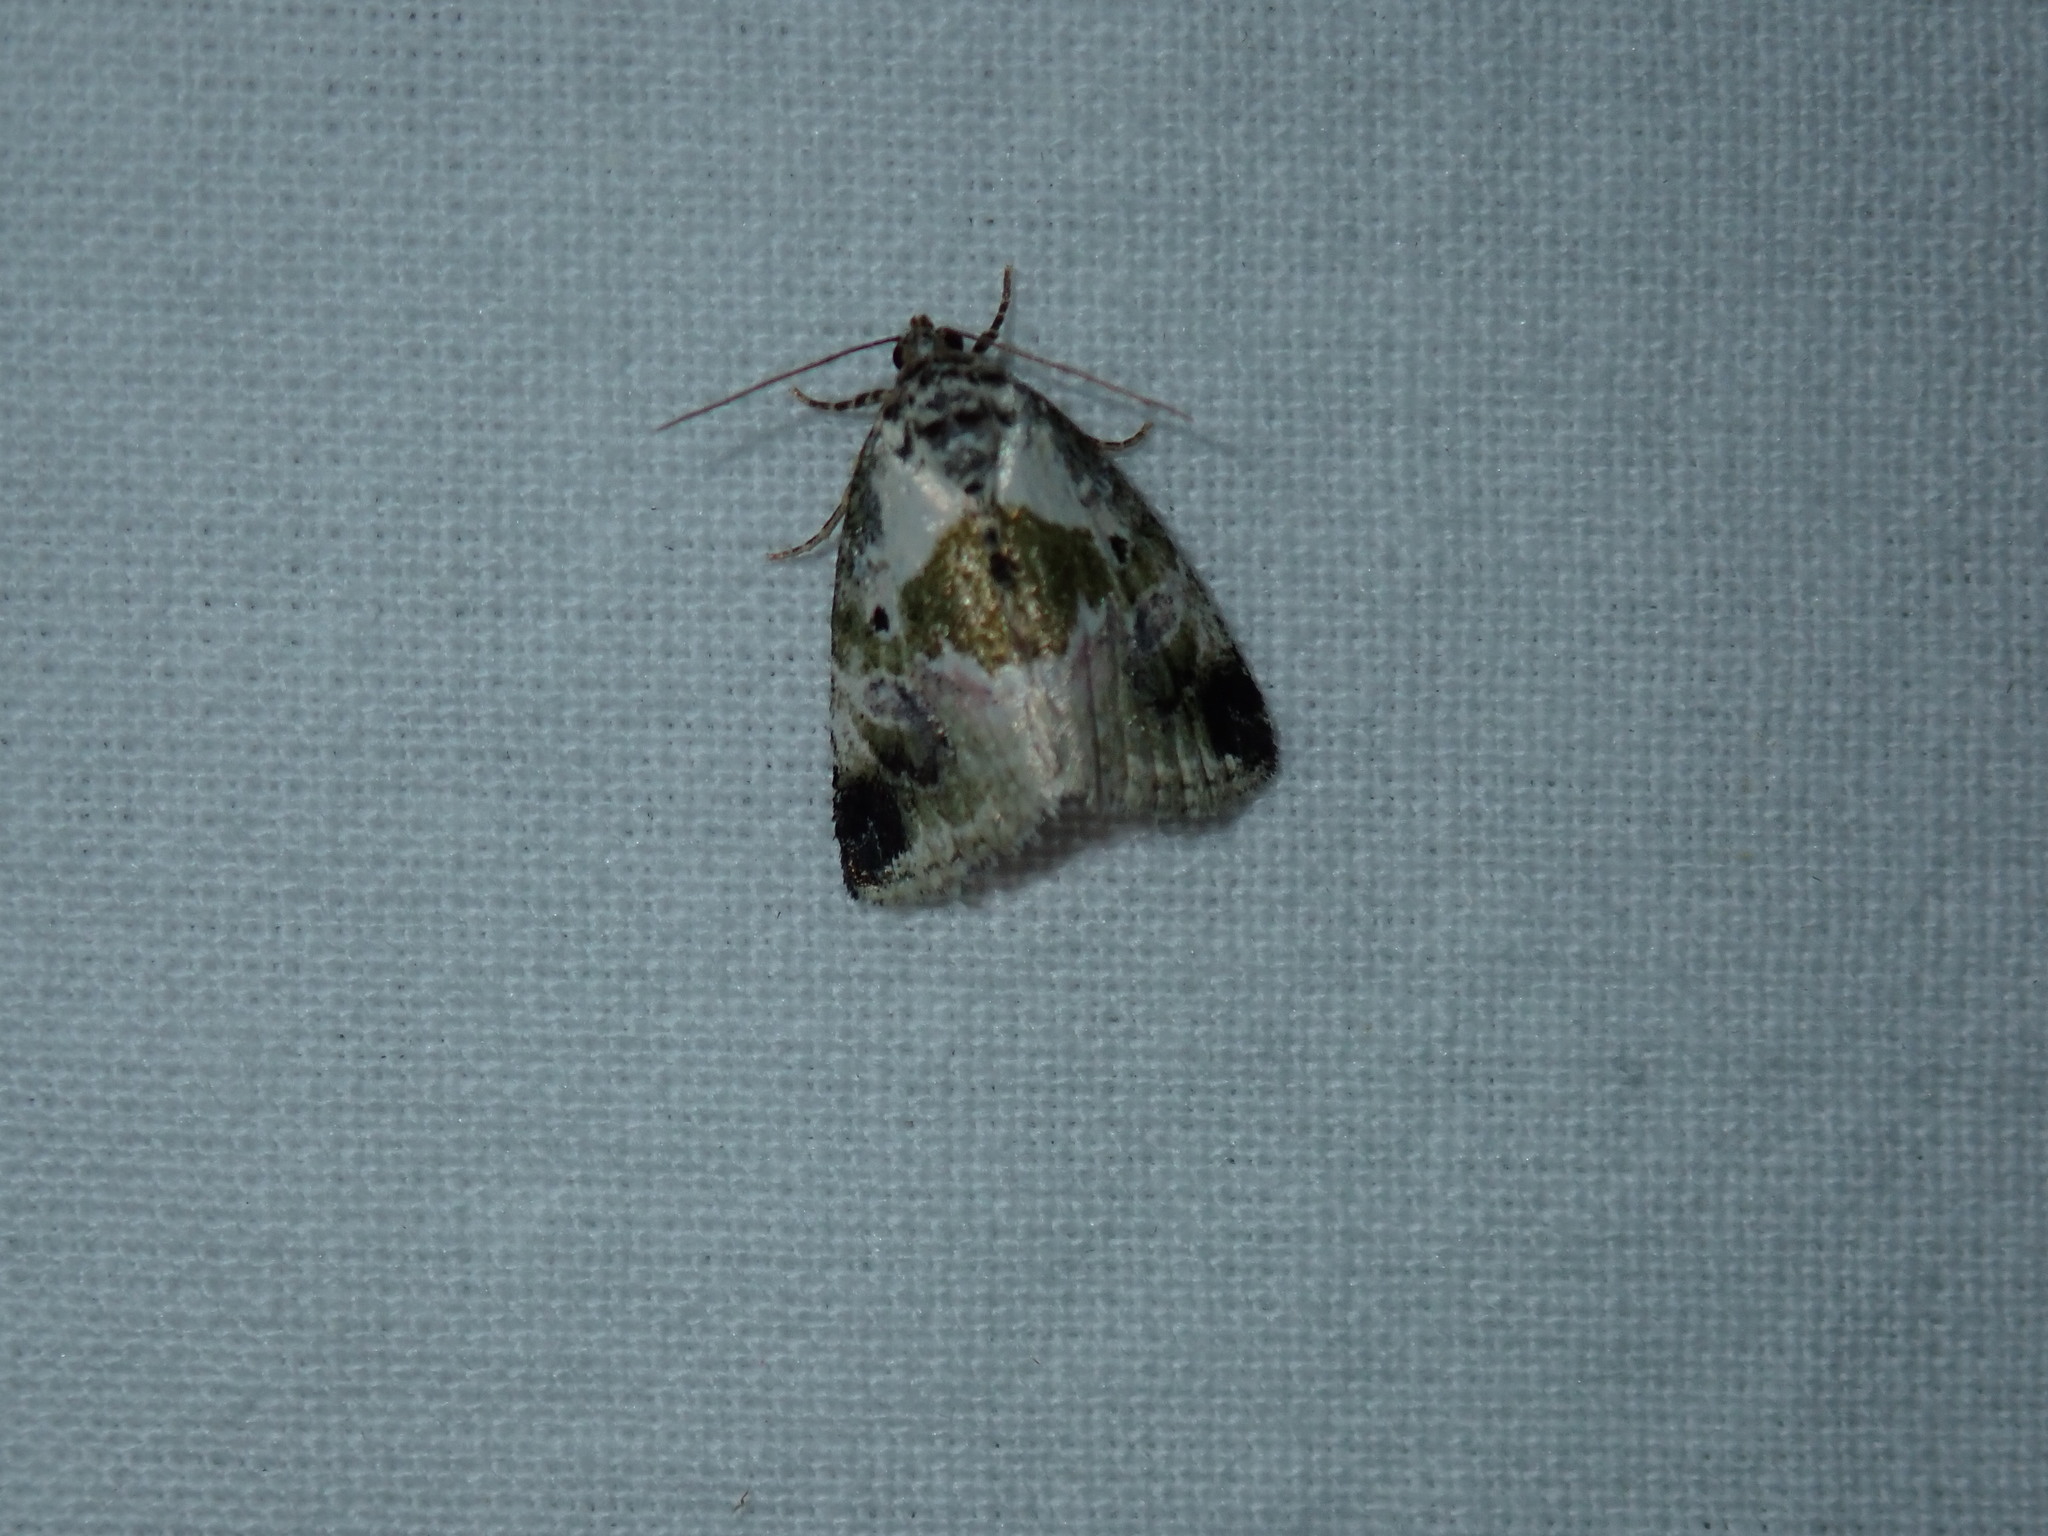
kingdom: Animalia
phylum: Arthropoda
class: Insecta
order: Lepidoptera
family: Noctuidae
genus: Maliattha
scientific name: Maliattha synochitis
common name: Black-dotted glyph
